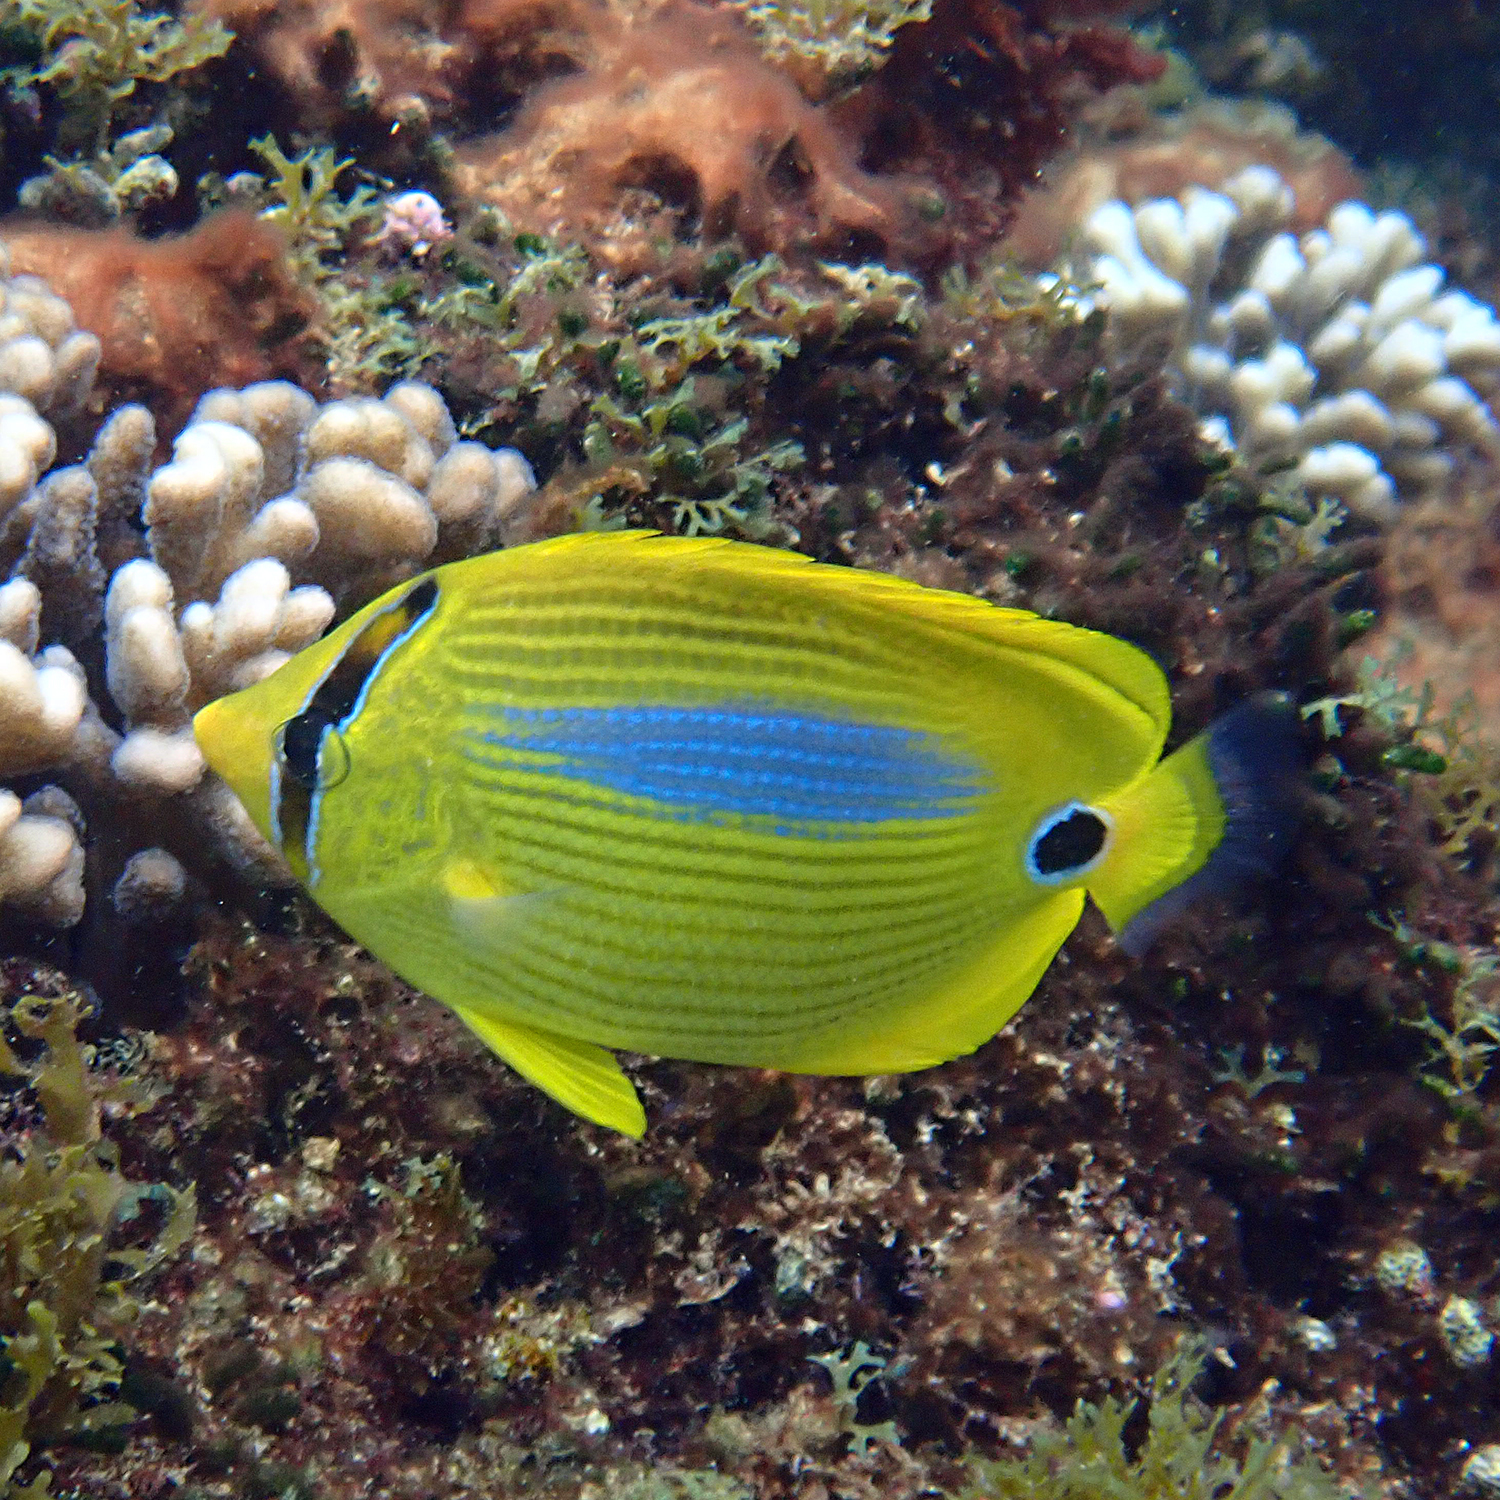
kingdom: Animalia
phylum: Chordata
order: Perciformes
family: Chaetodontidae
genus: Chaetodon
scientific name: Chaetodon plebeius
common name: Bluespot butterflyfish
